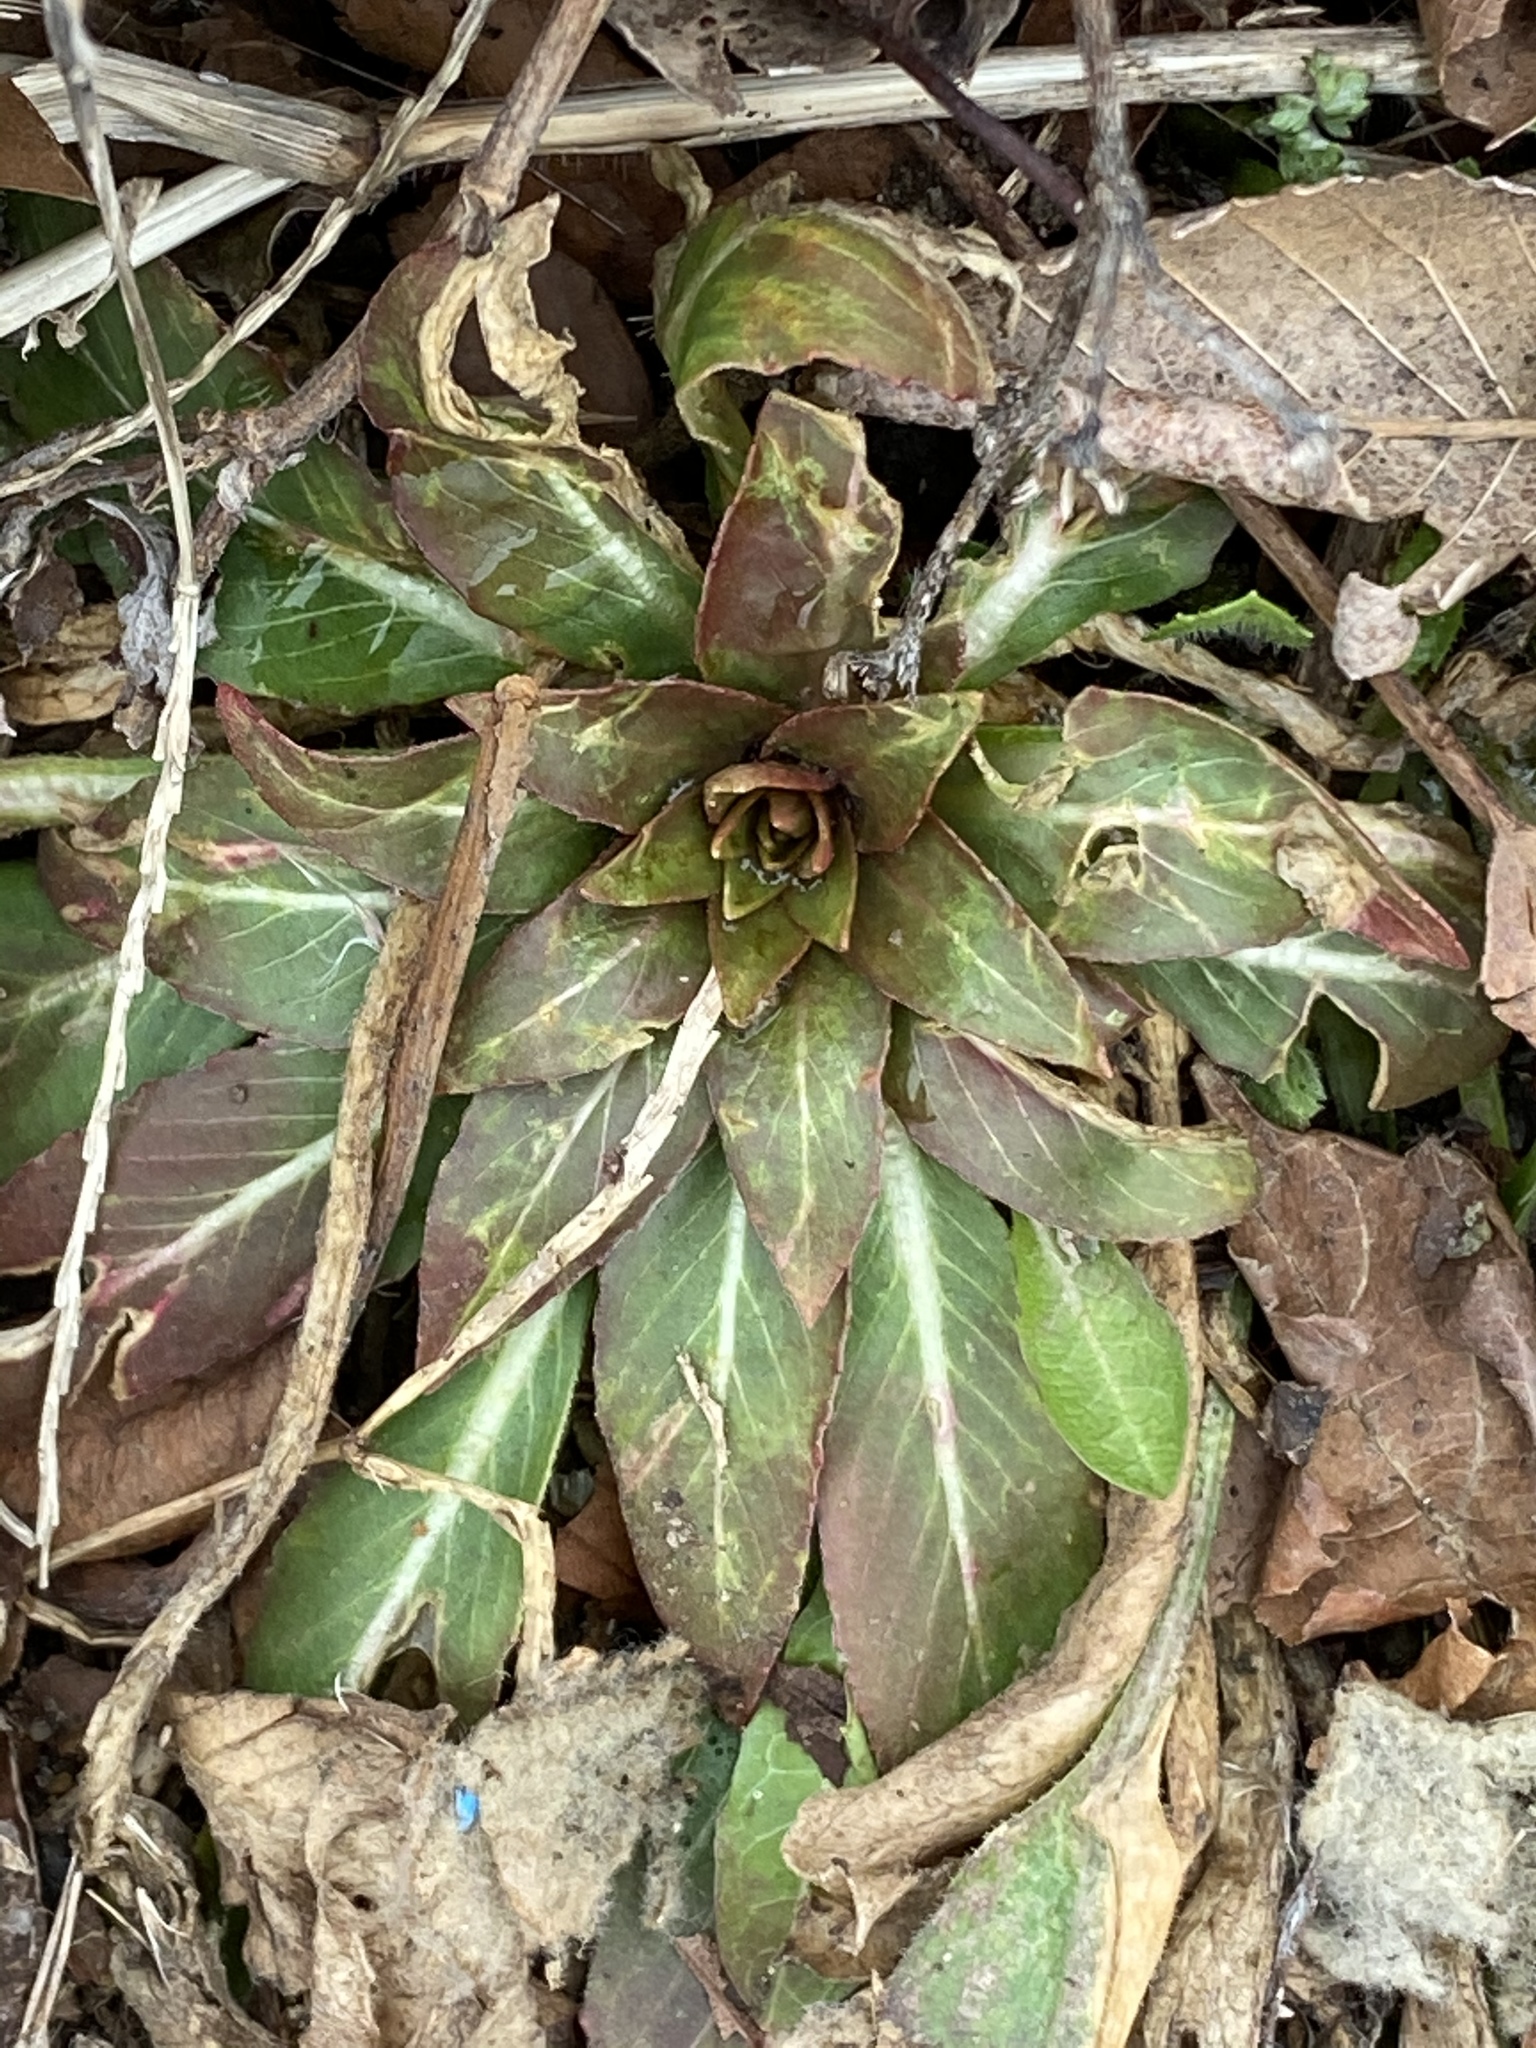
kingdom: Plantae
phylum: Tracheophyta
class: Magnoliopsida
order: Myrtales
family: Onagraceae
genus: Oenothera
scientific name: Oenothera biennis
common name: Common evening-primrose
